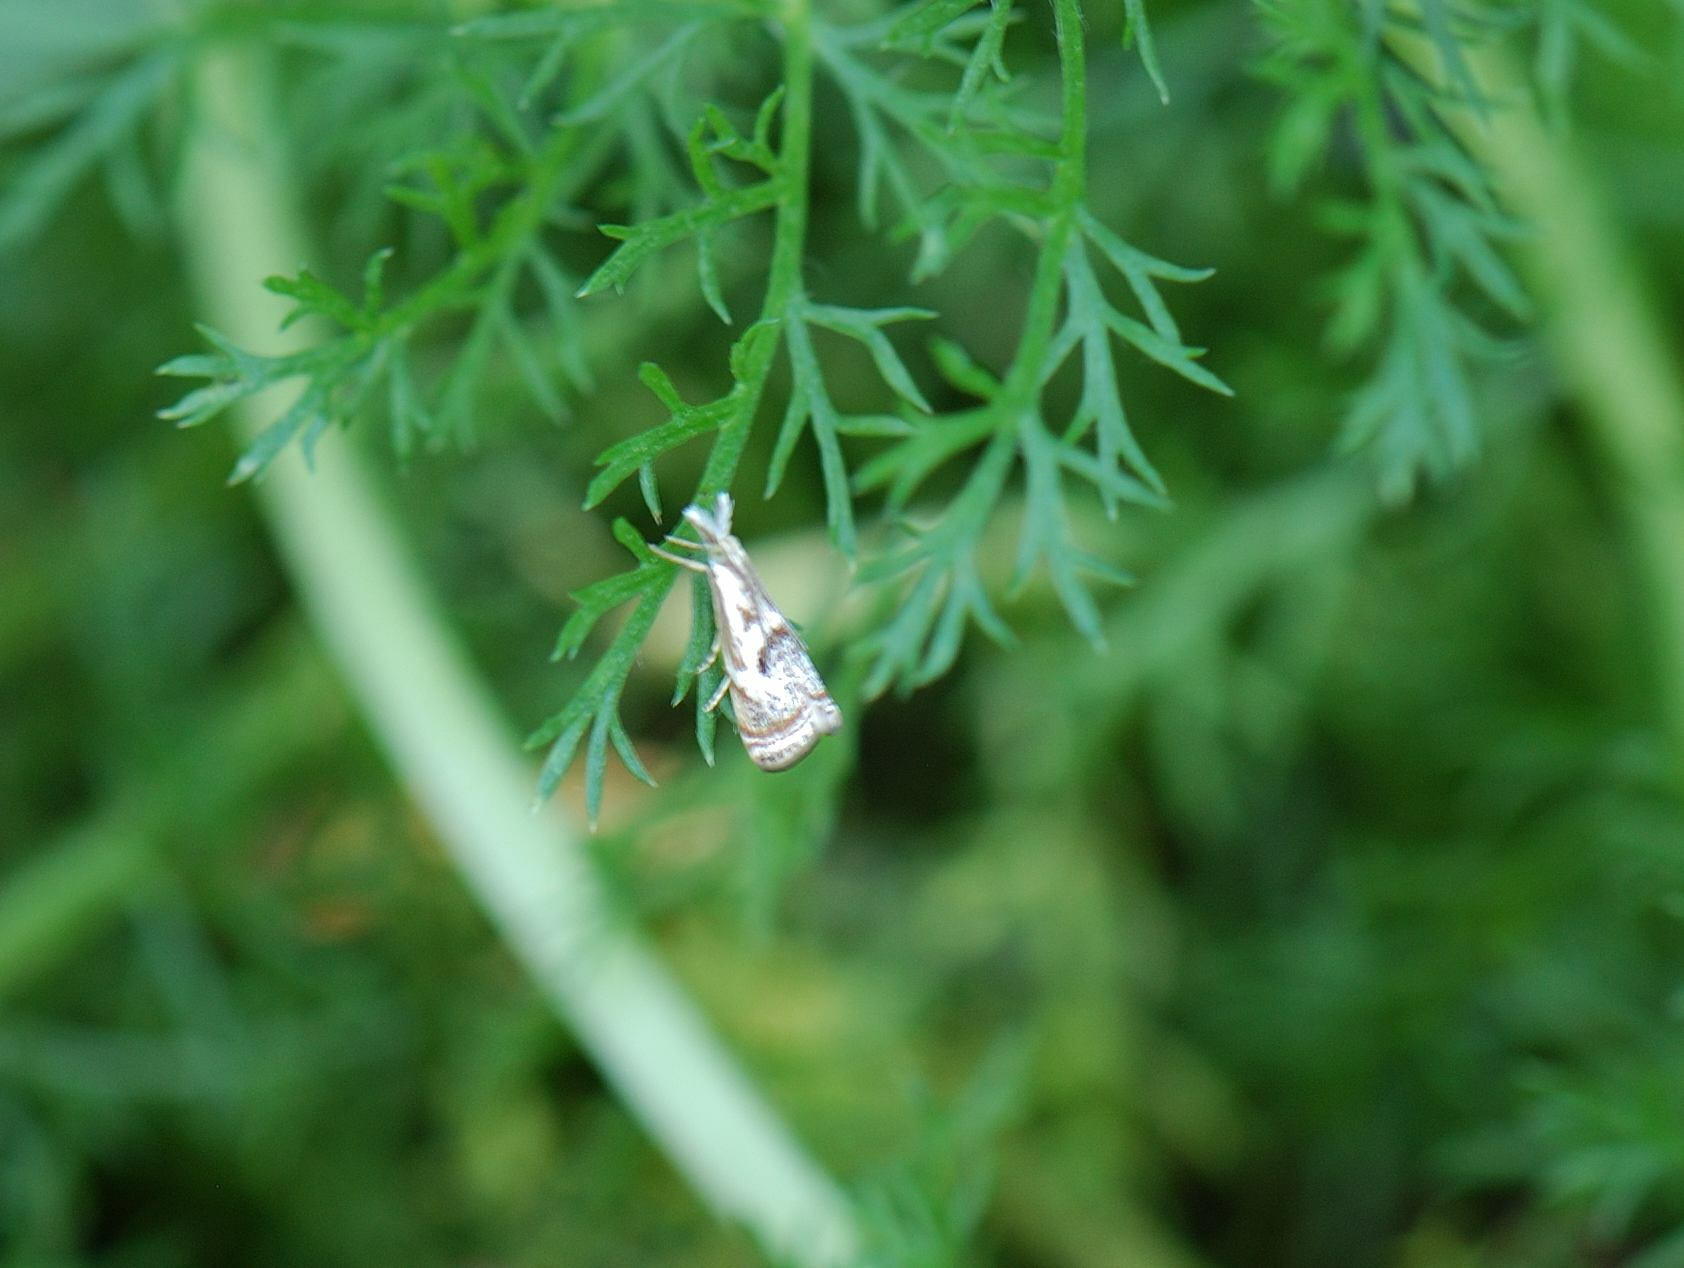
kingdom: Animalia
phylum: Arthropoda
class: Insecta
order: Lepidoptera
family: Crambidae
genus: Microcrambus
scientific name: Microcrambus elegans
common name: Elegant grass-veneer
